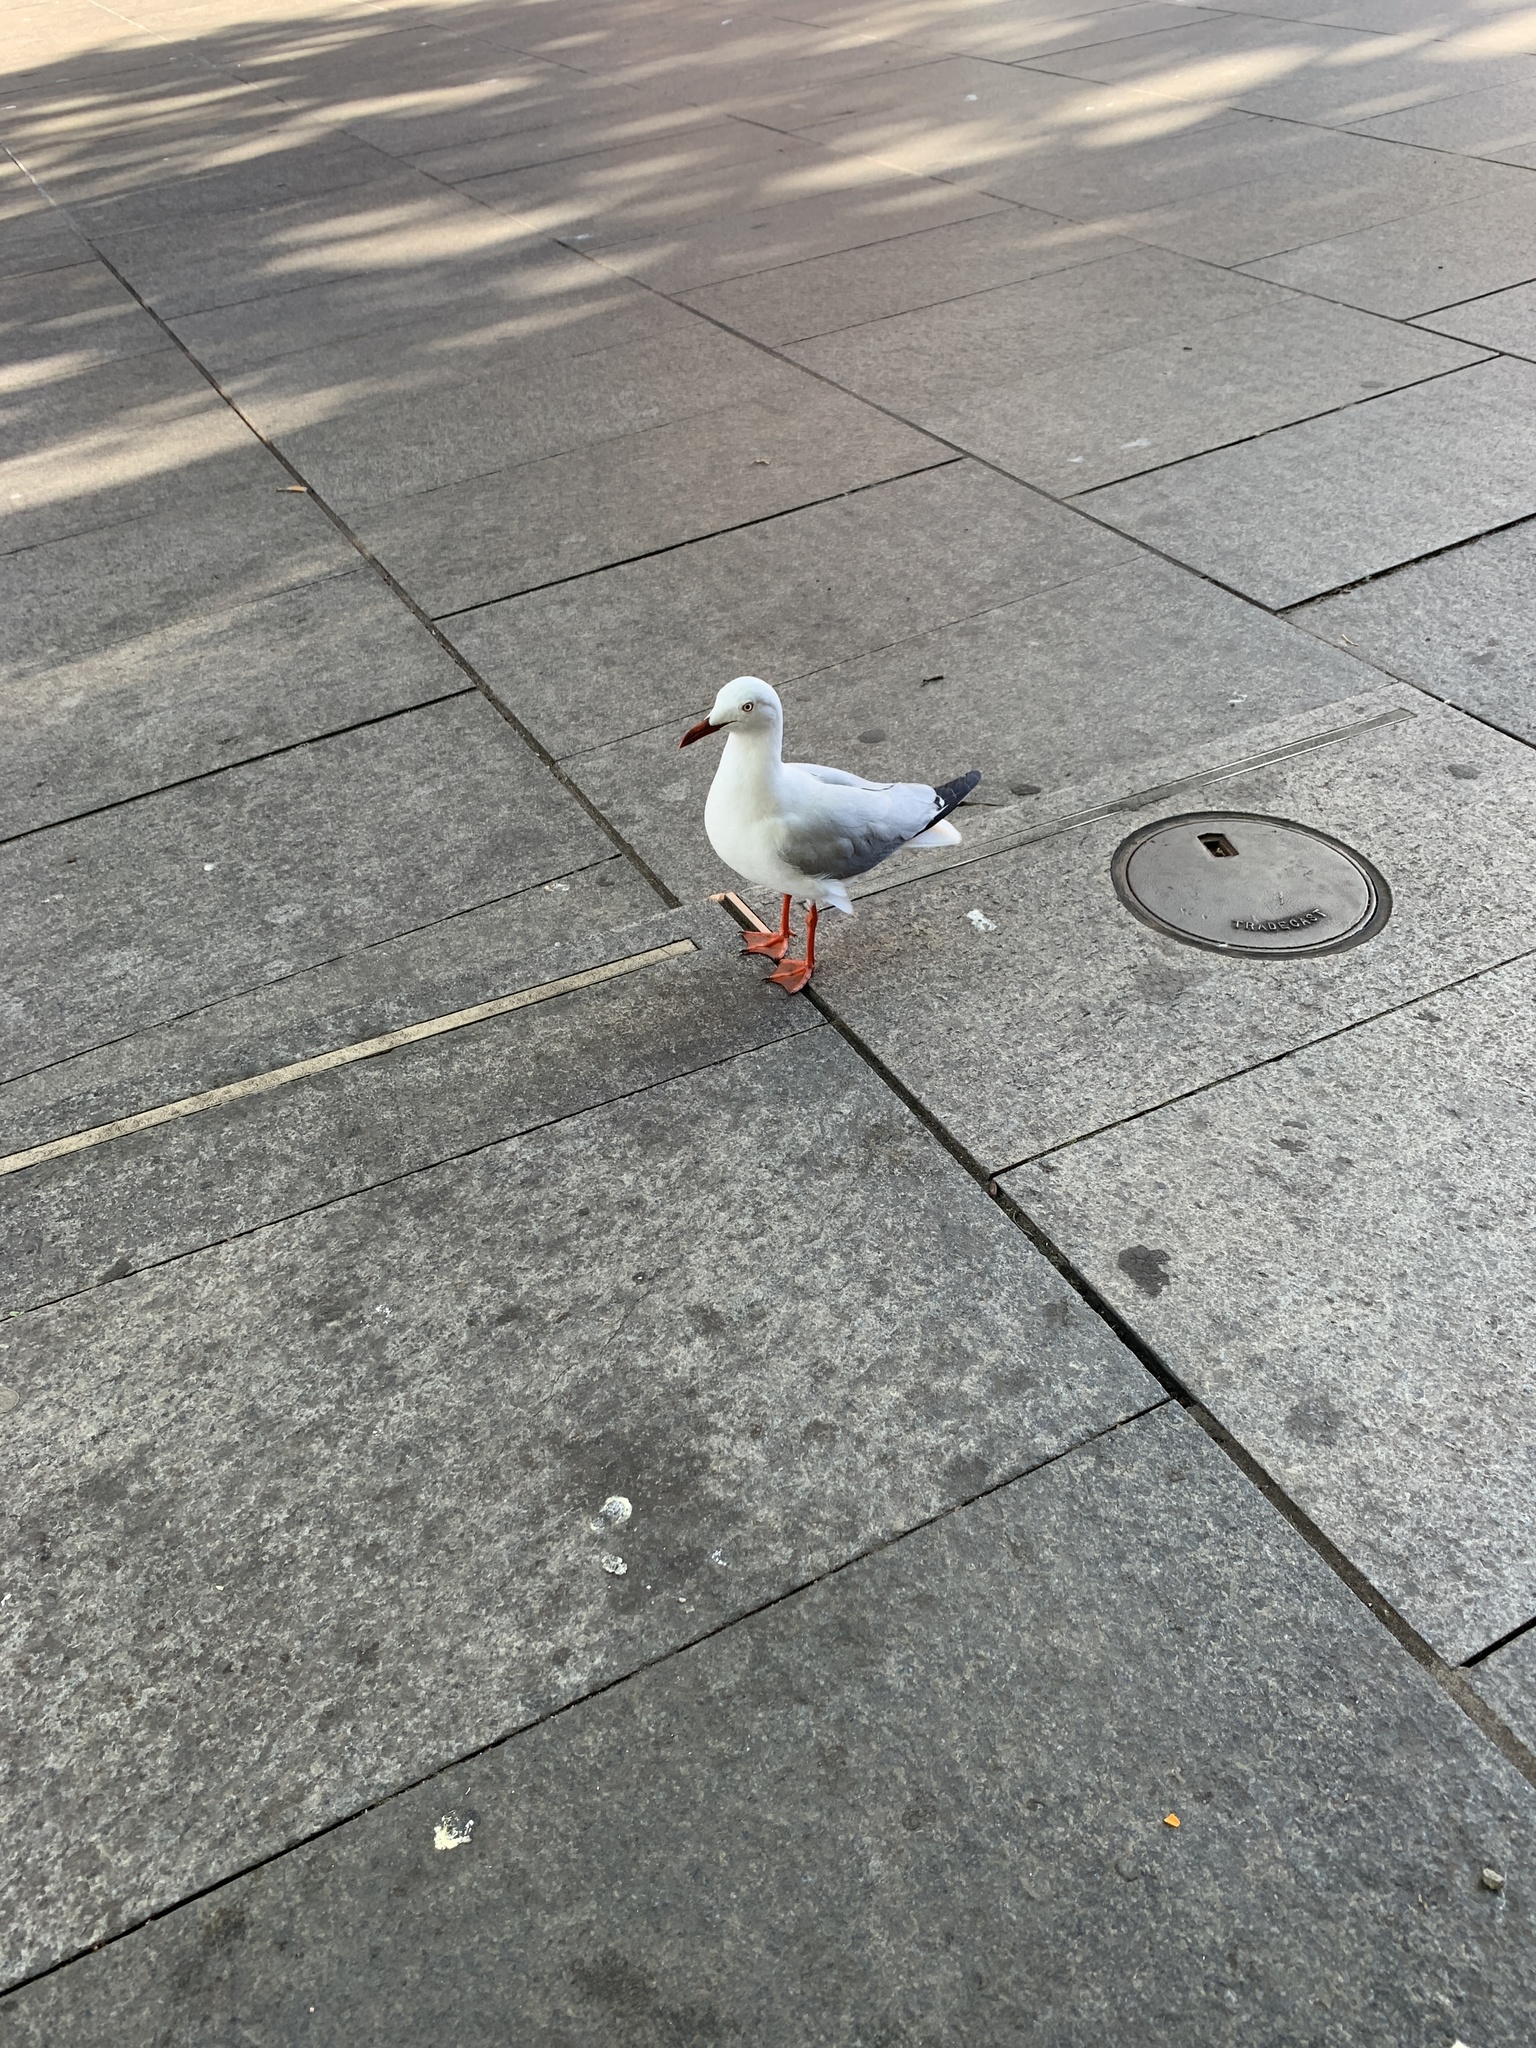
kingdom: Animalia
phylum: Chordata
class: Aves
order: Charadriiformes
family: Laridae
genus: Chroicocephalus
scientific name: Chroicocephalus novaehollandiae
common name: Silver gull
